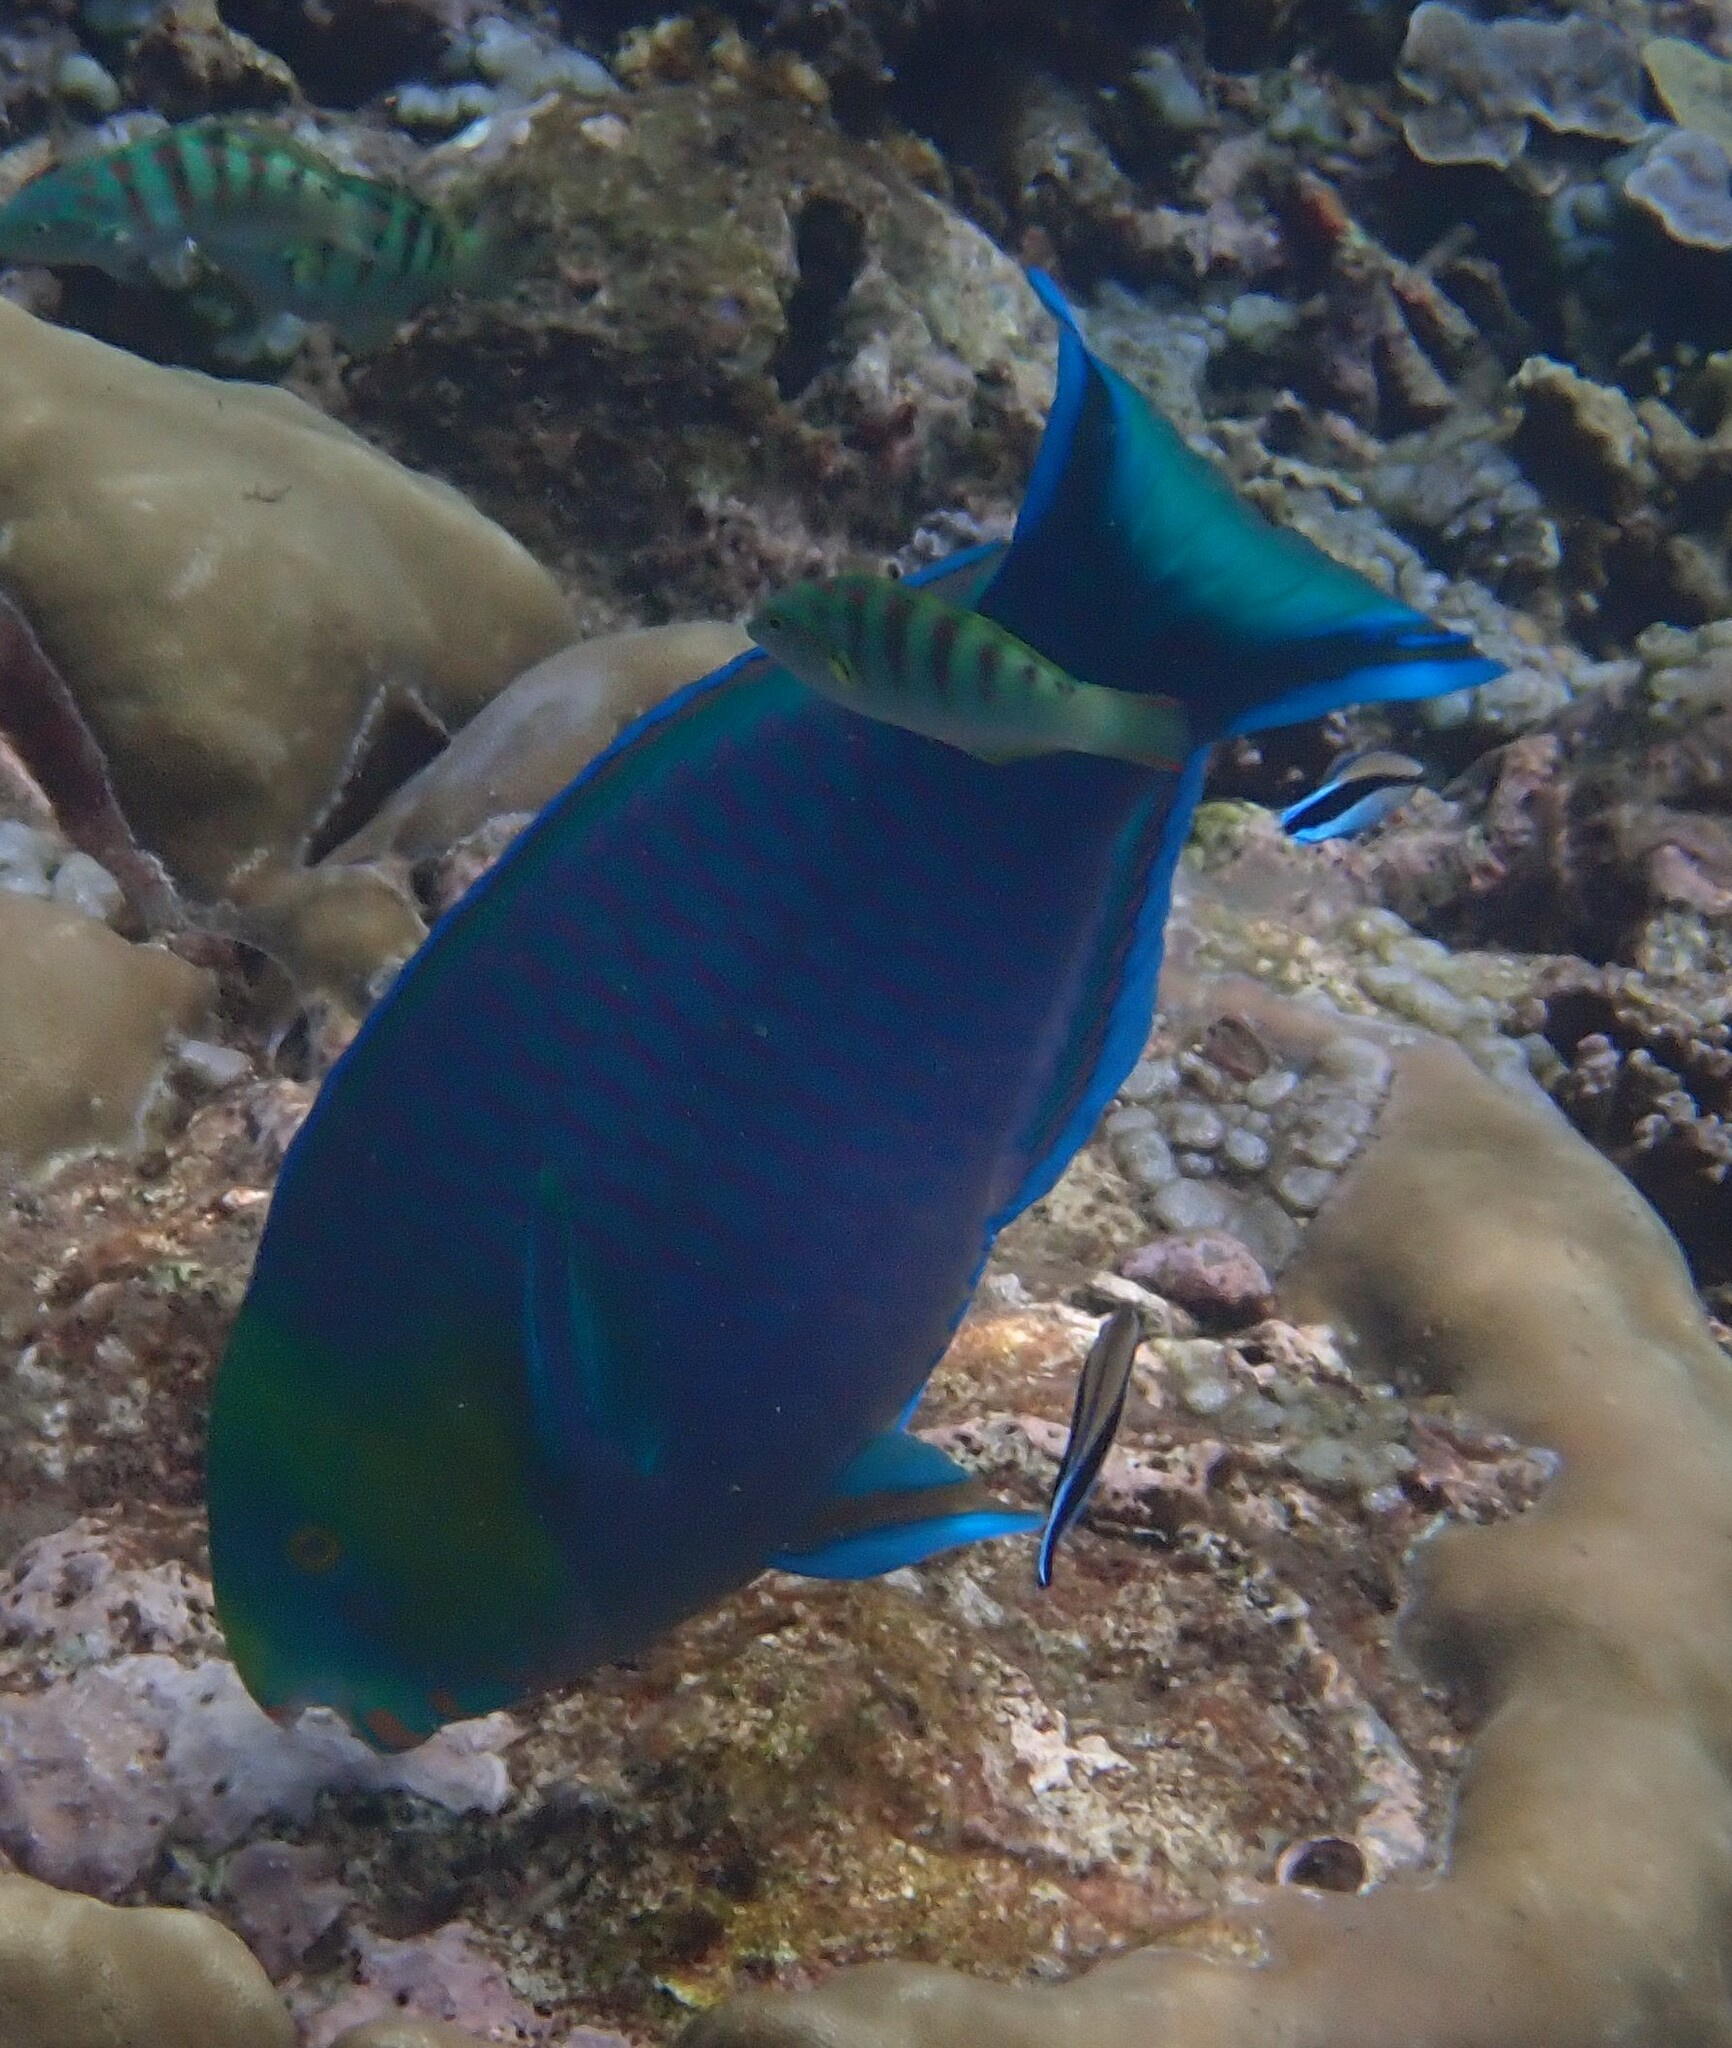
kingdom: Animalia
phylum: Chordata
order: Perciformes
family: Scaridae
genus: Scarus
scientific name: Scarus spinus
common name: Greensnout parrotfish
